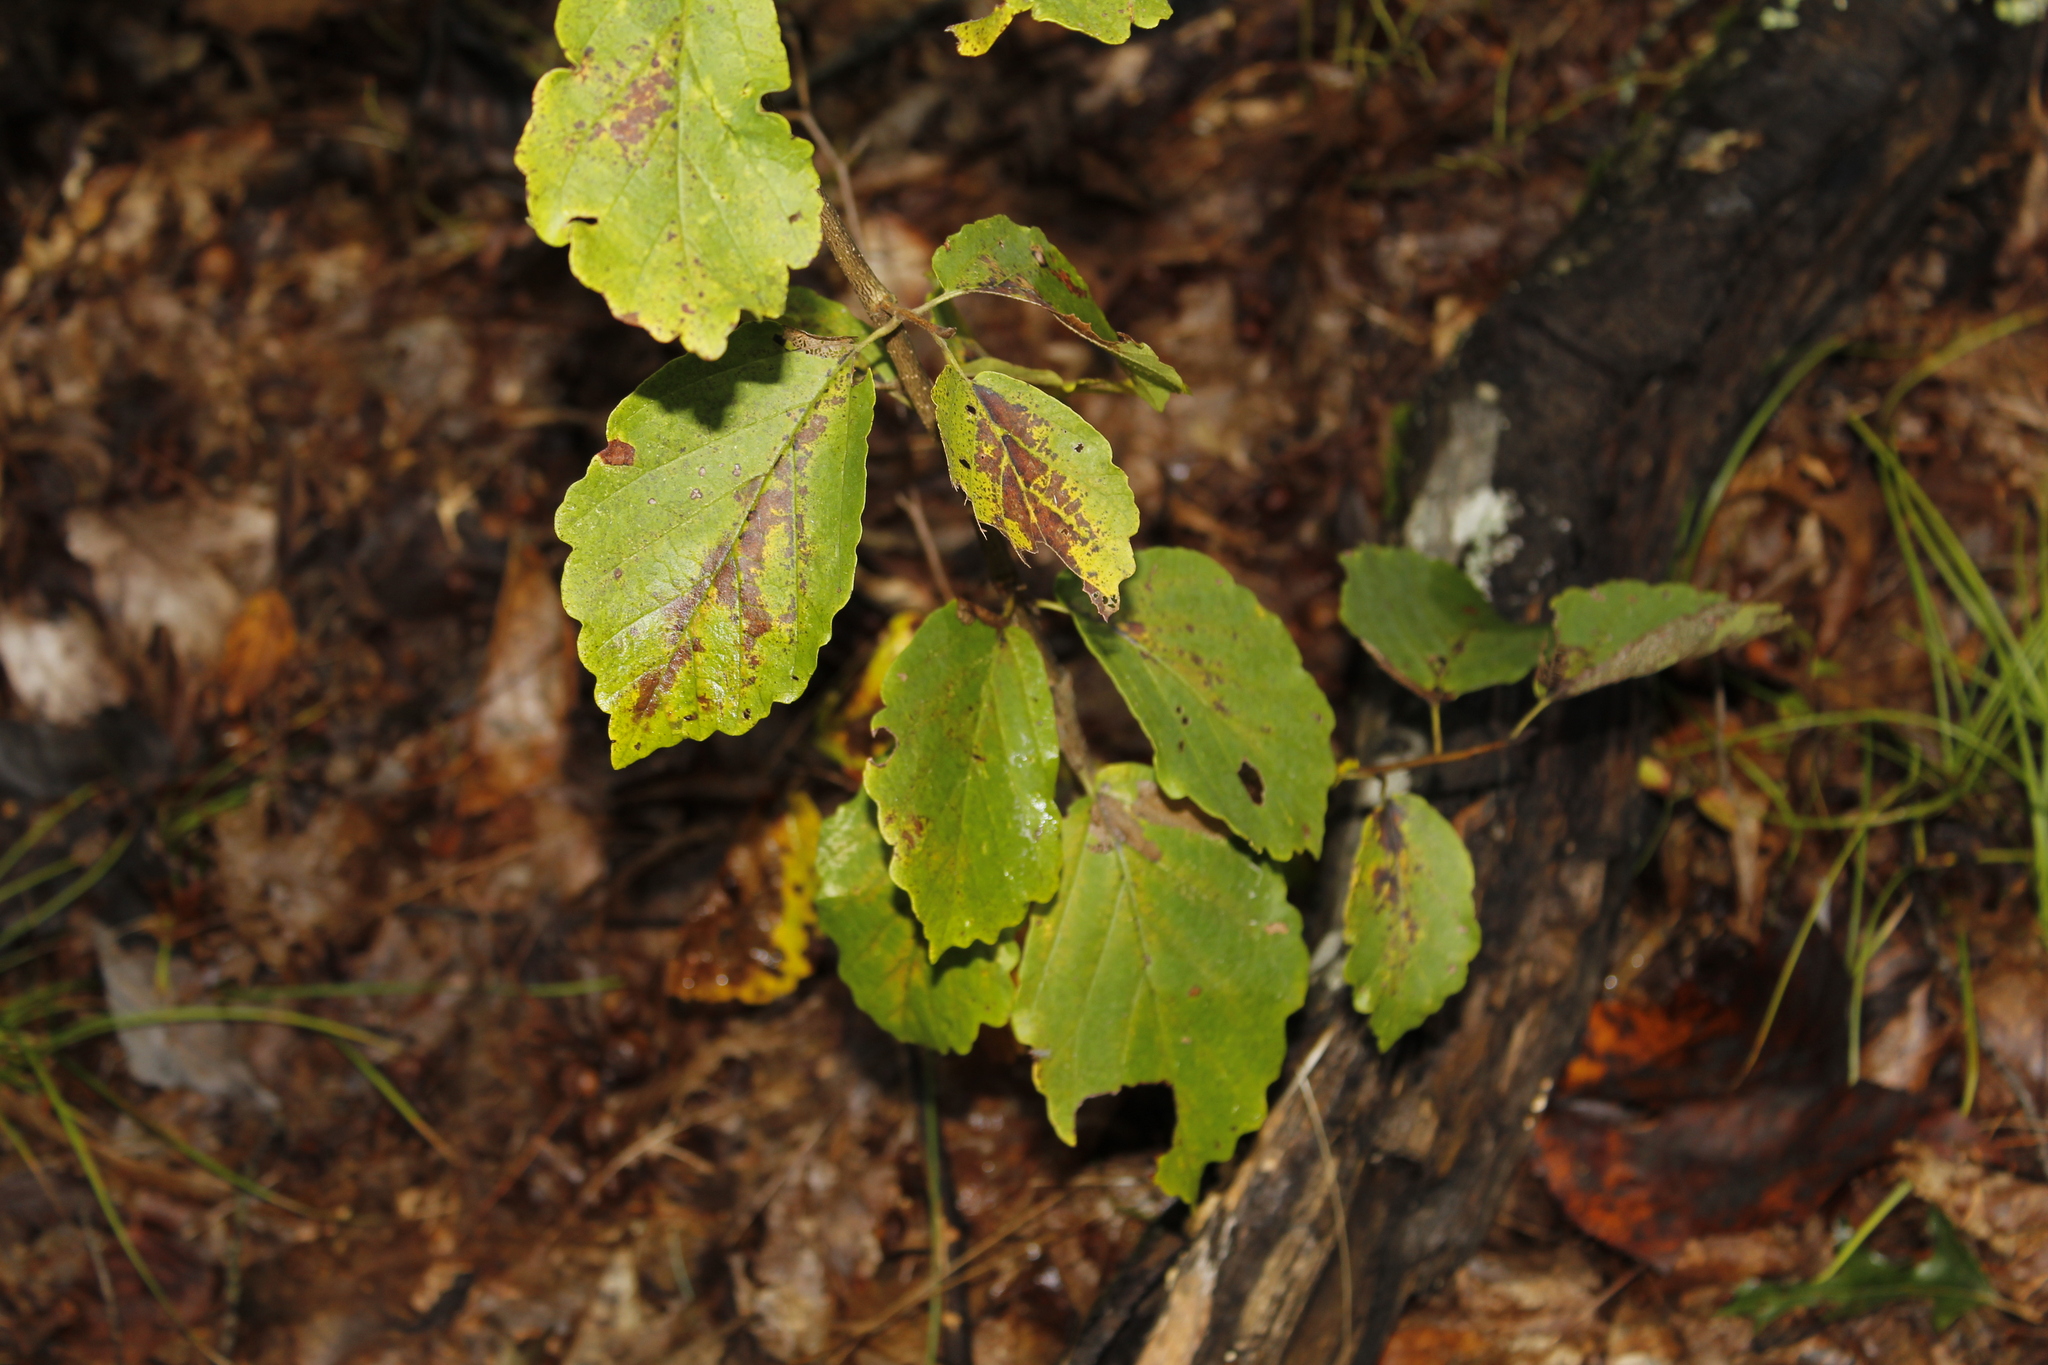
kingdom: Plantae
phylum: Tracheophyta
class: Magnoliopsida
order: Saxifragales
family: Hamamelidaceae
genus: Hamamelis
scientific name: Hamamelis virginiana
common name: Witch-hazel
